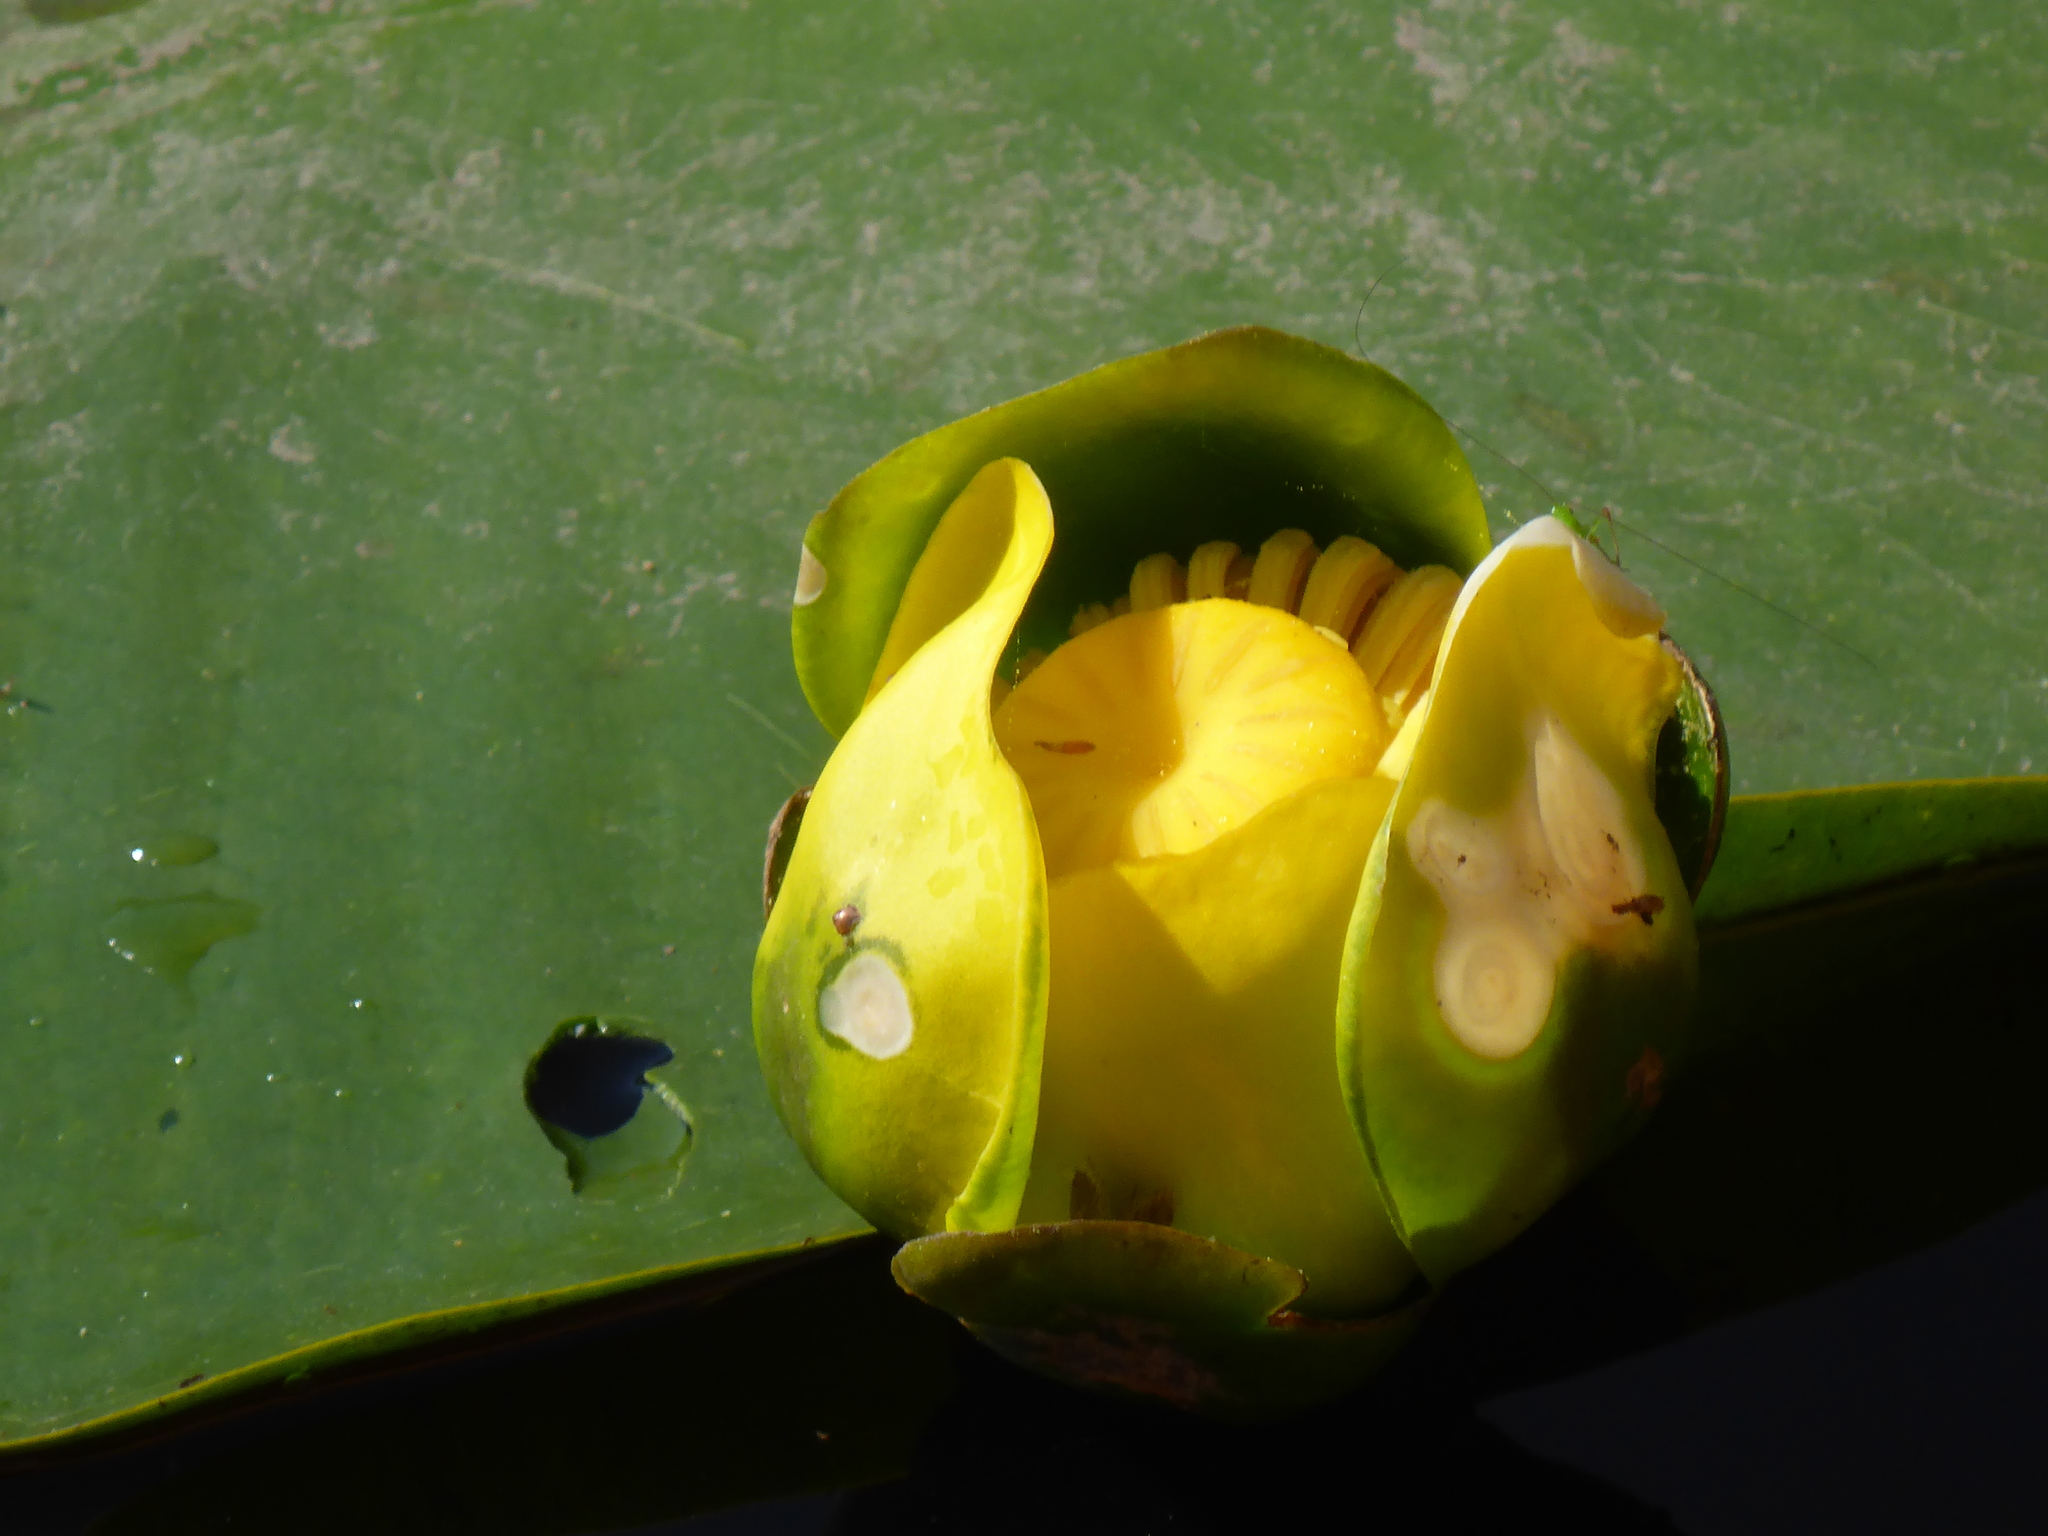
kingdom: Plantae
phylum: Tracheophyta
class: Magnoliopsida
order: Nymphaeales
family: Nymphaeaceae
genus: Nuphar
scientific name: Nuphar advena
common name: Spatter-dock
